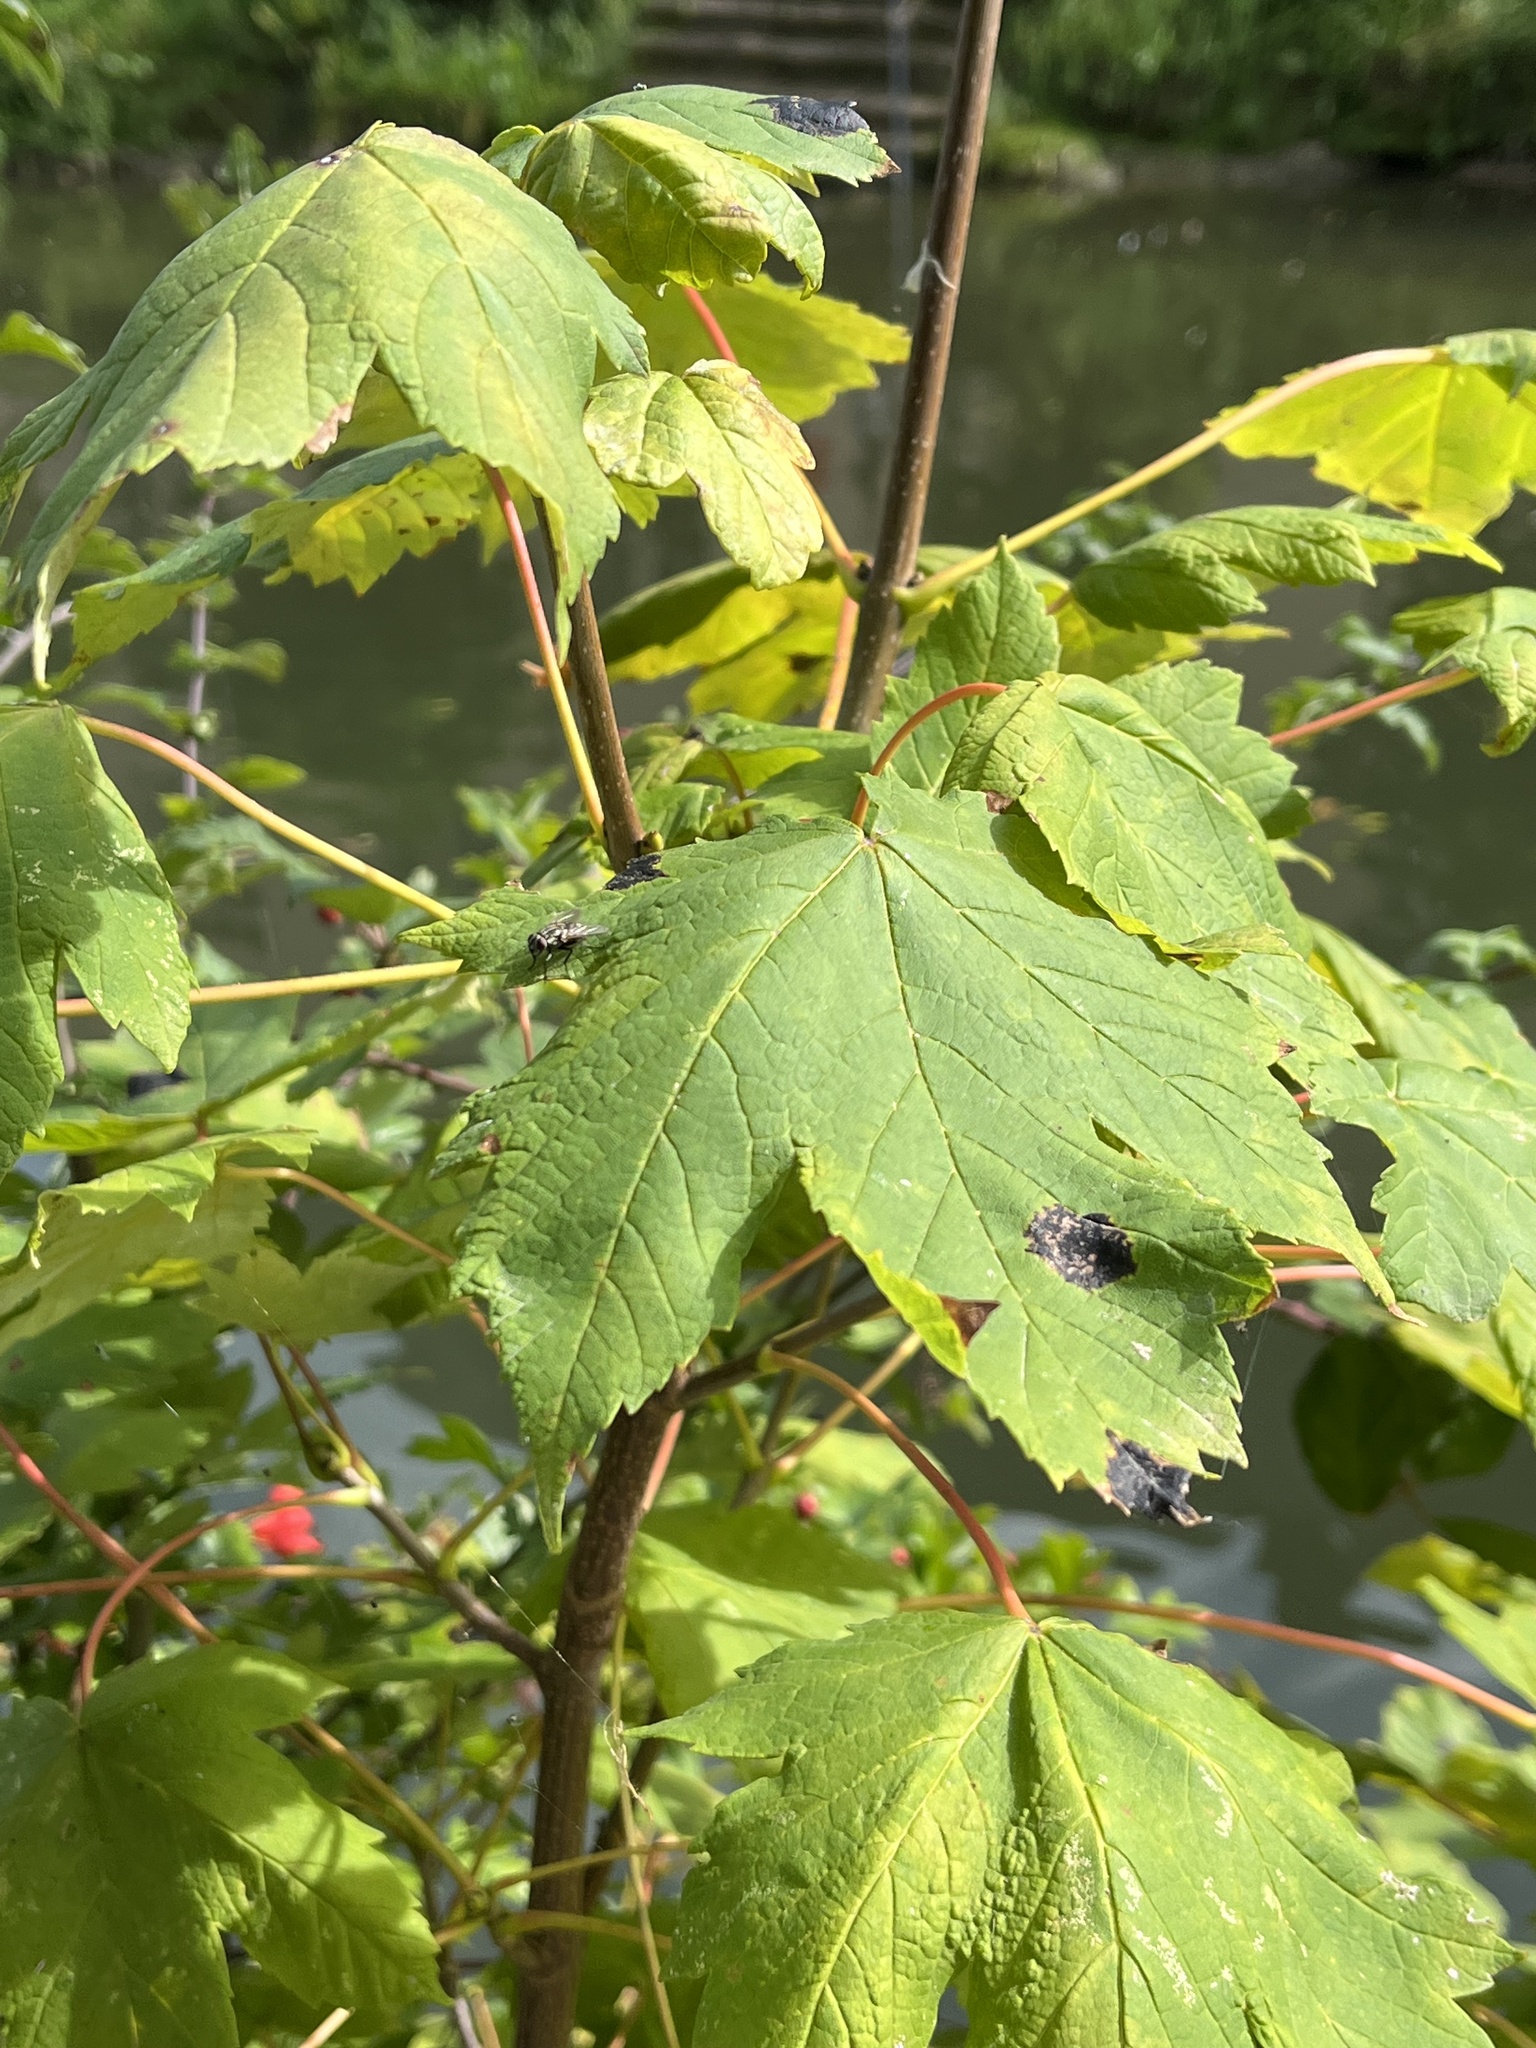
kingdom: Plantae
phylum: Tracheophyta
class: Magnoliopsida
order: Sapindales
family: Sapindaceae
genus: Acer
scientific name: Acer pseudoplatanus
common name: Sycamore
